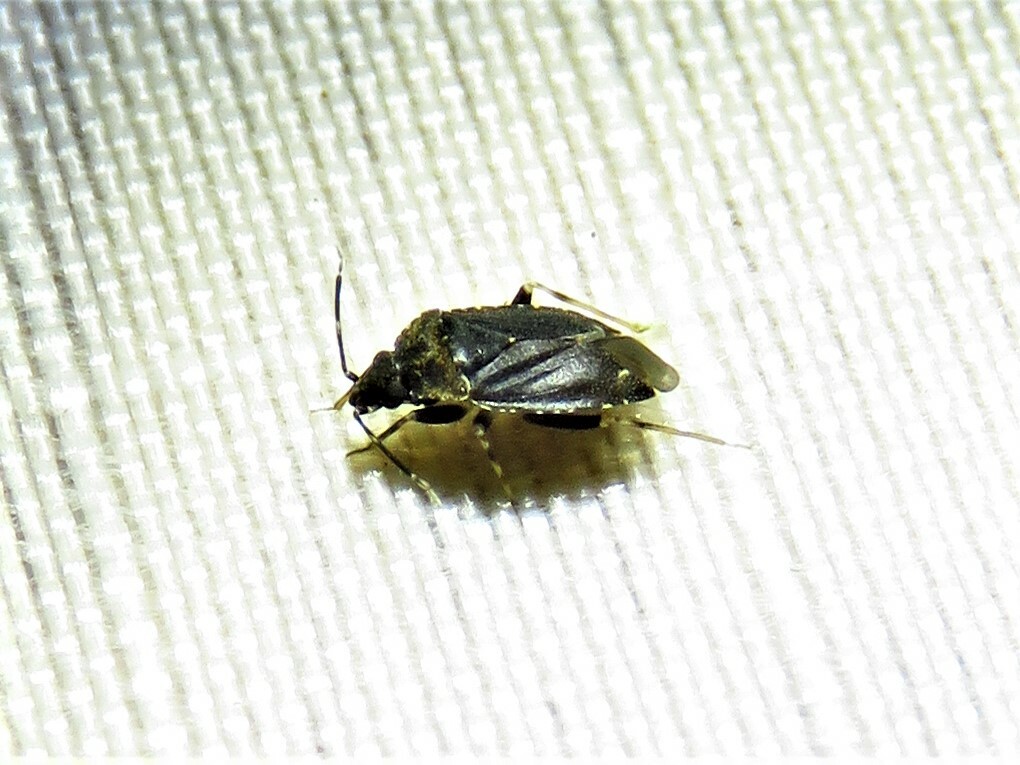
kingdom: Animalia
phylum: Arthropoda
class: Insecta
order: Hemiptera
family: Miridae
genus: Peritropis
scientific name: Peritropis saldaeformis
